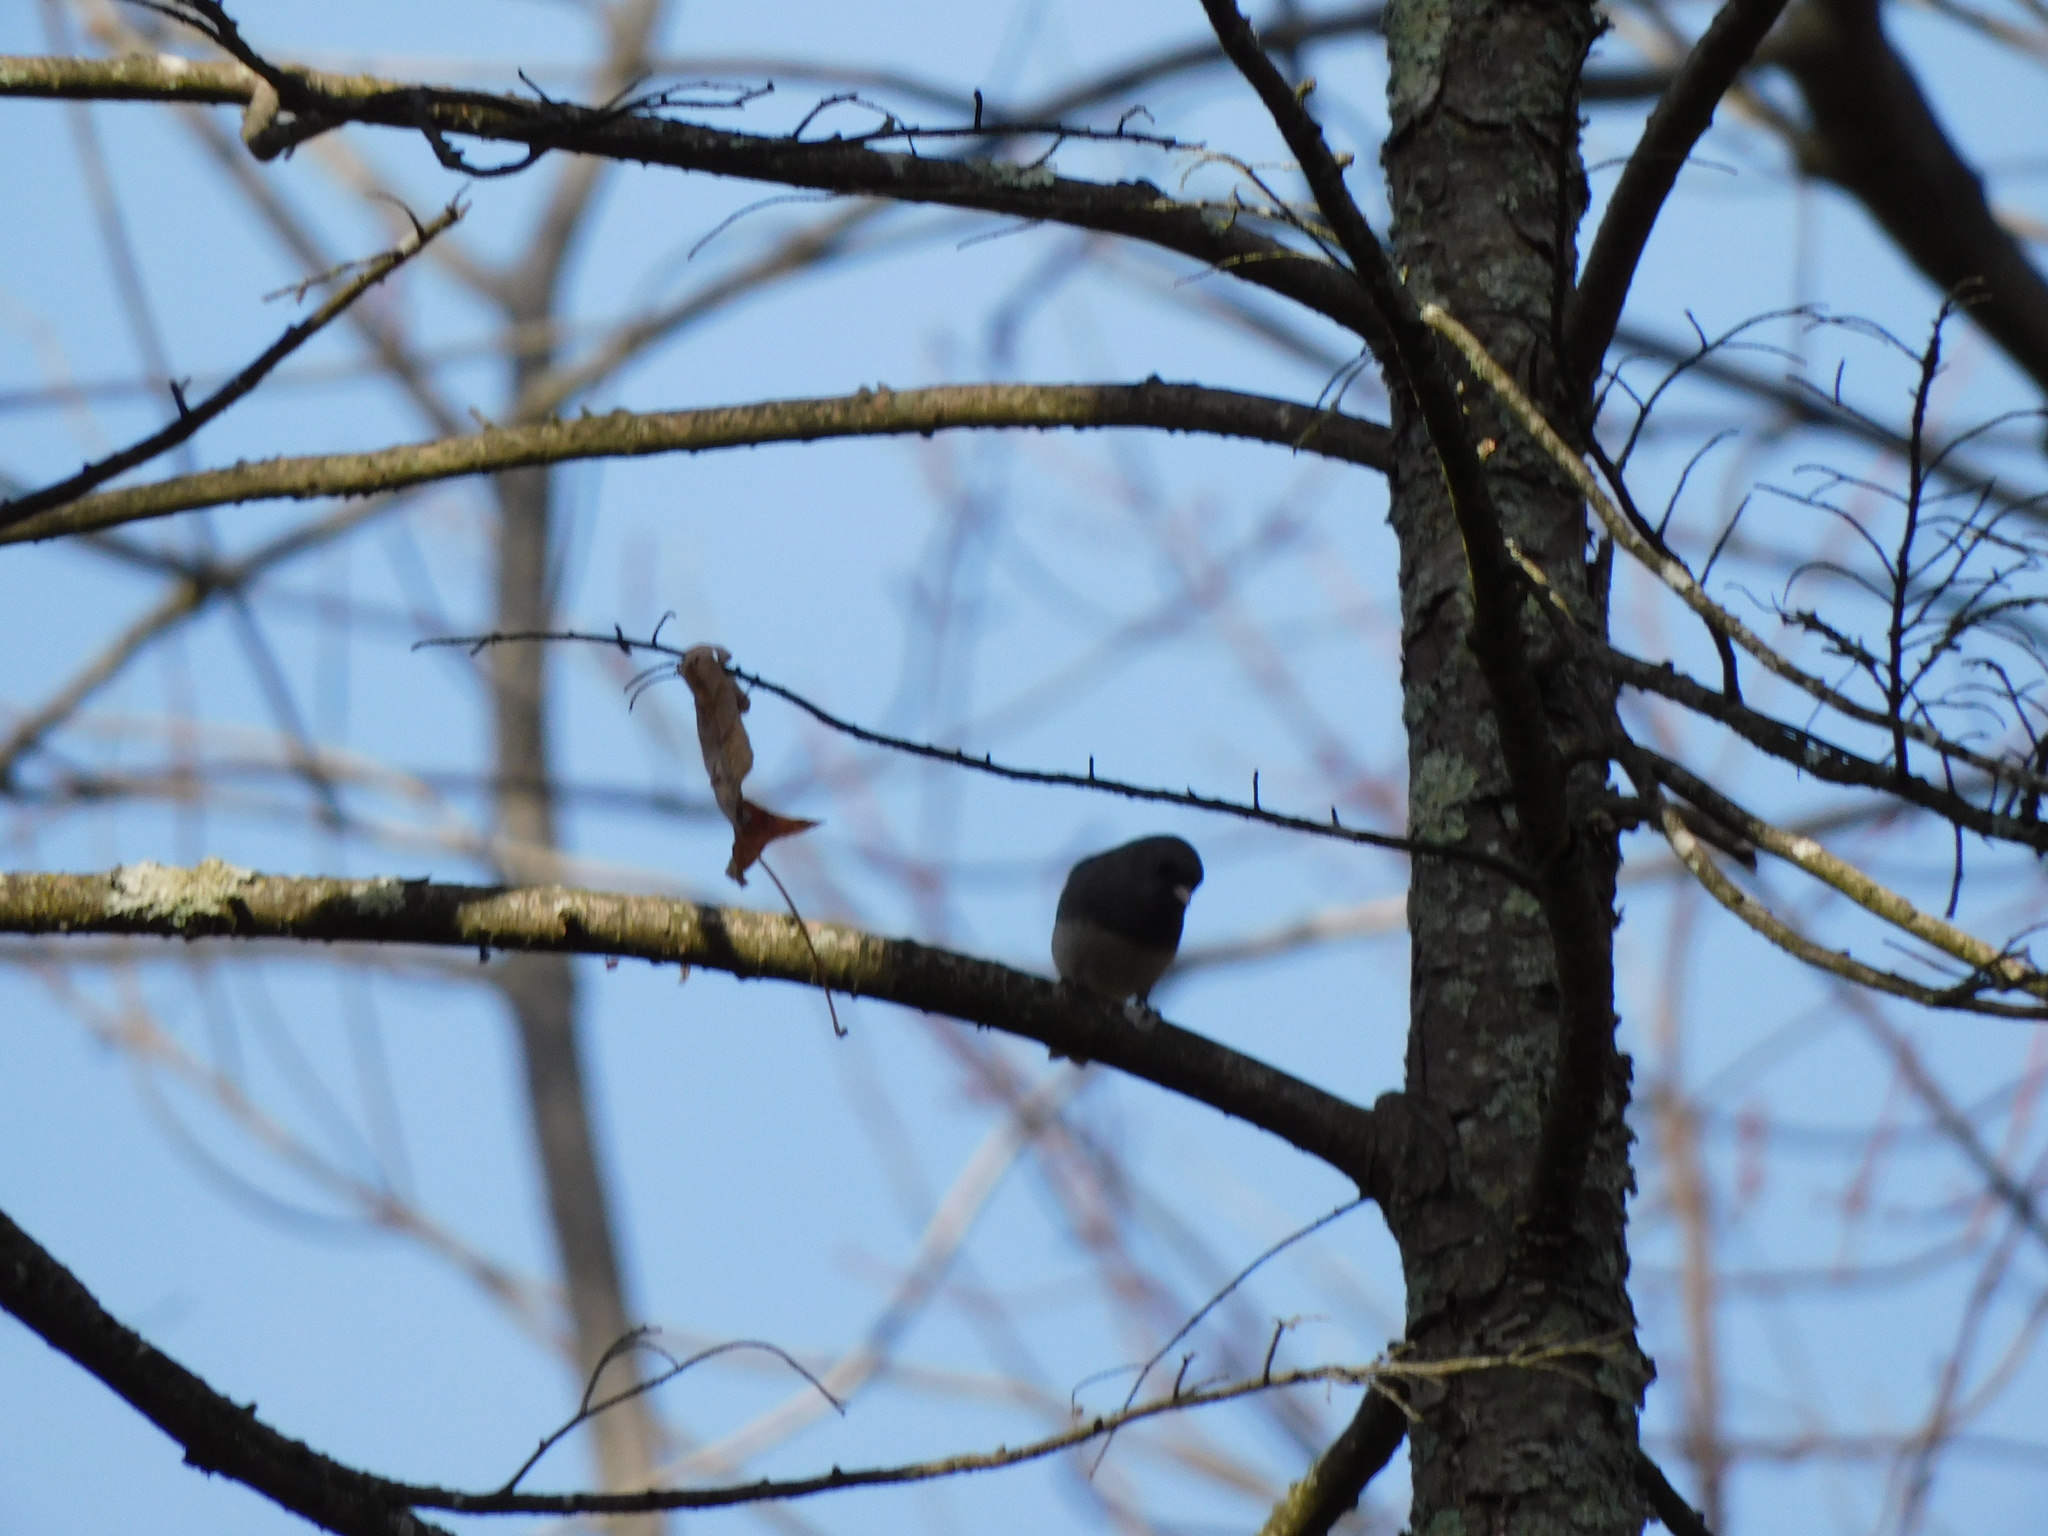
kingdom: Animalia
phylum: Chordata
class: Aves
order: Passeriformes
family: Passerellidae
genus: Junco
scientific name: Junco hyemalis
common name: Dark-eyed junco
